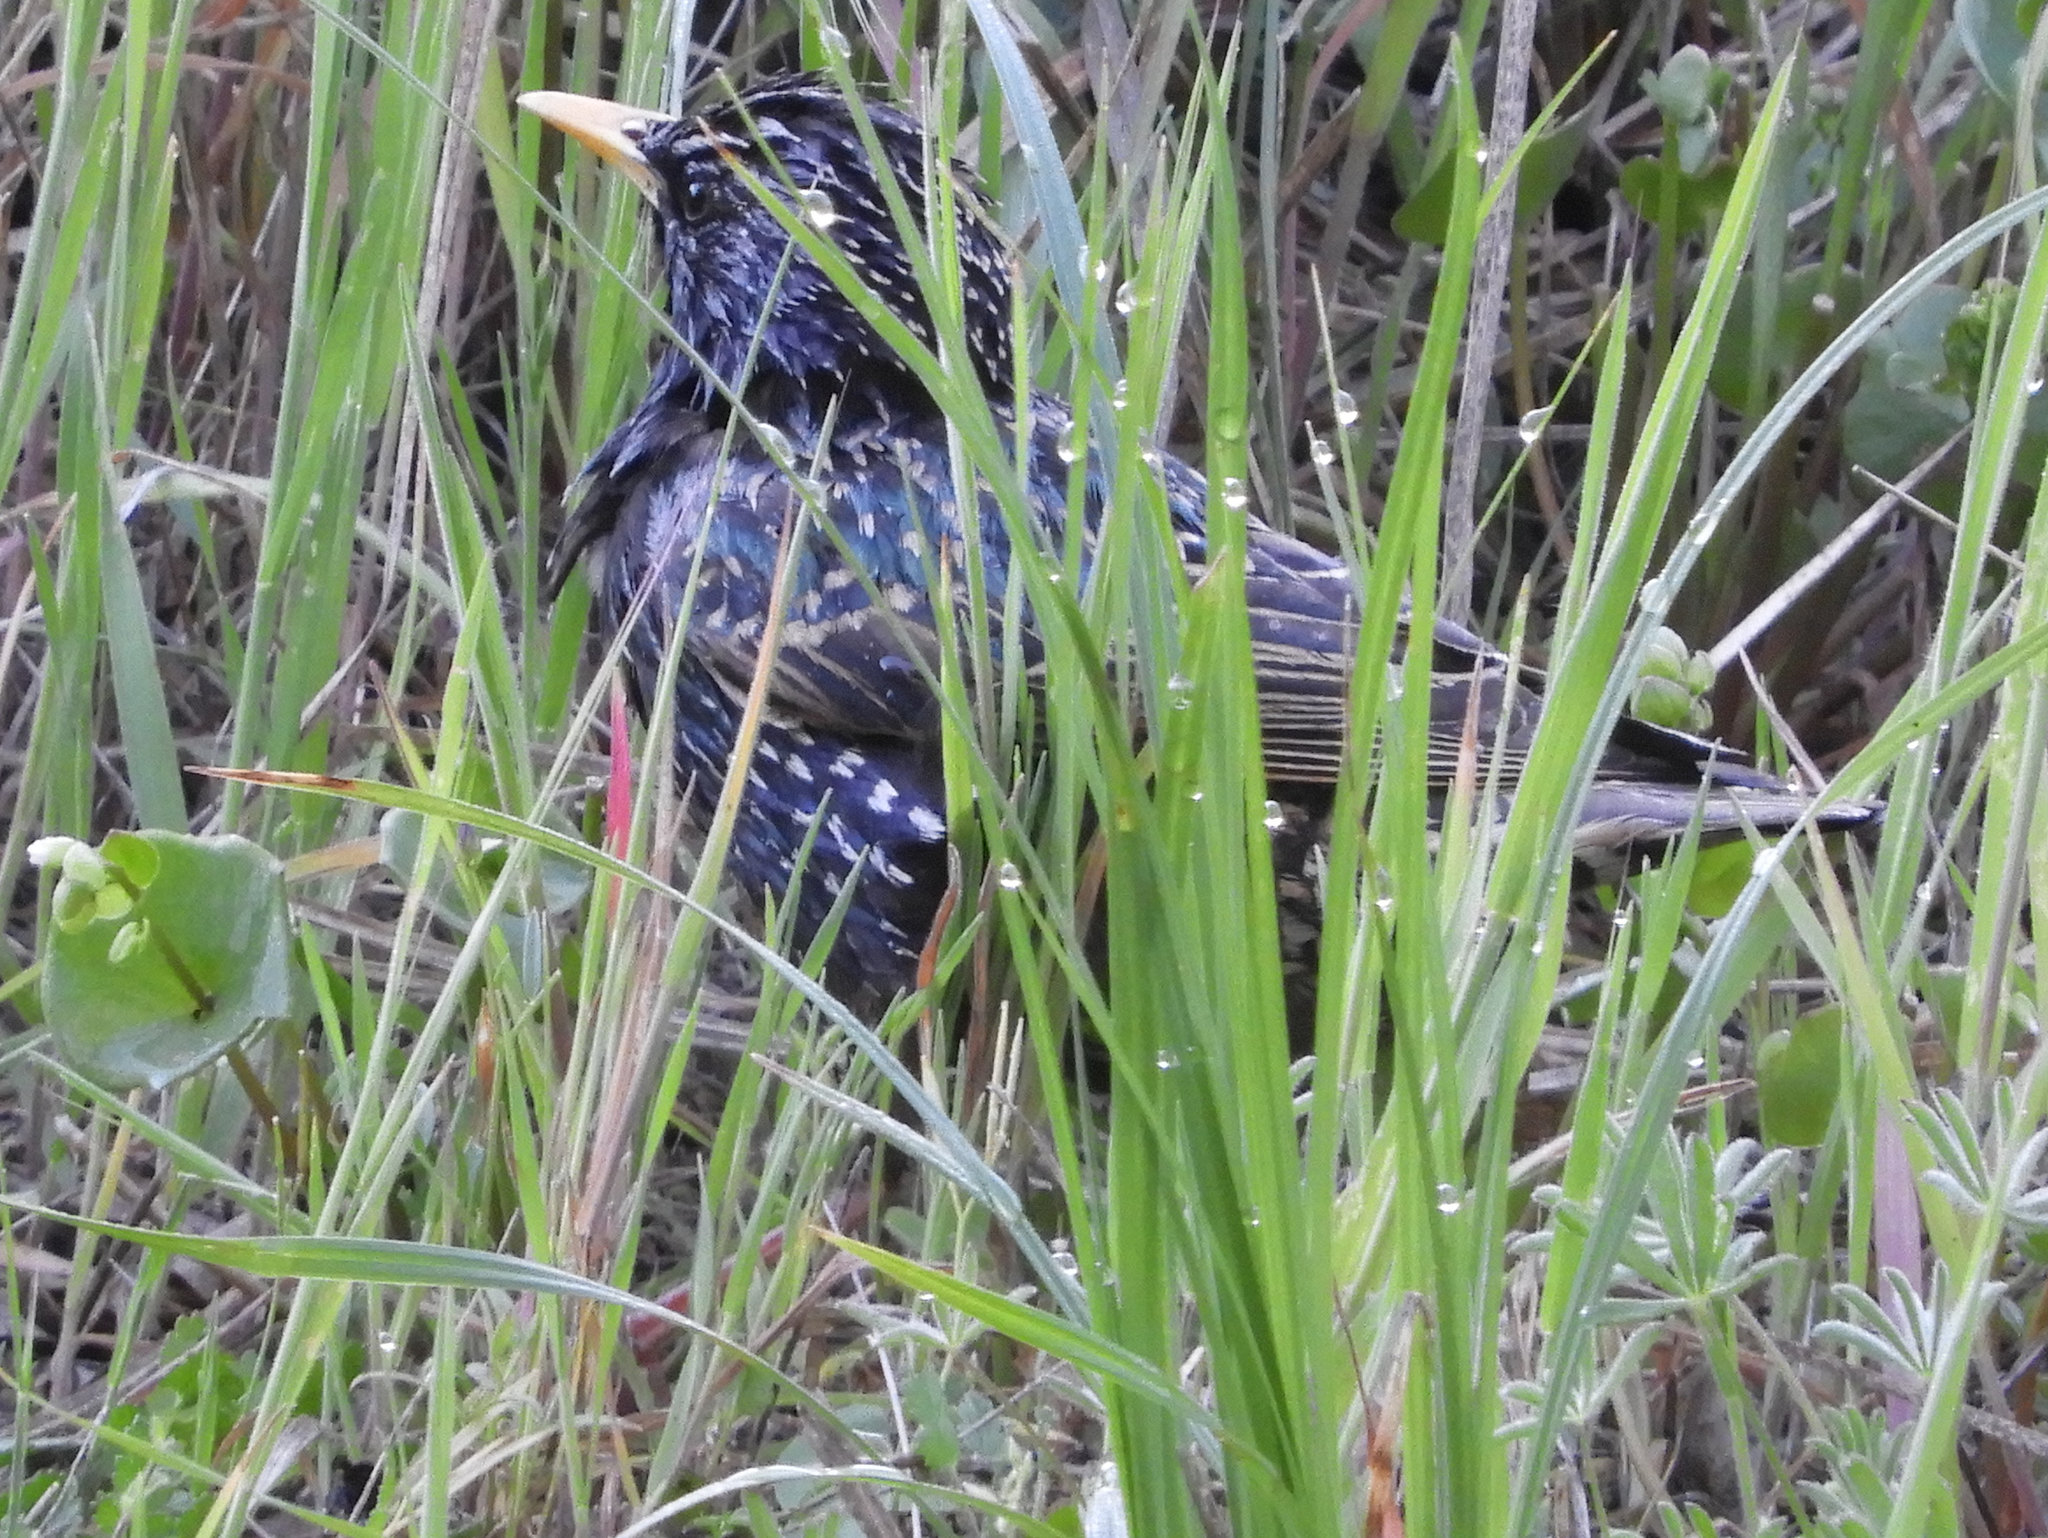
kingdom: Animalia
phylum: Chordata
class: Aves
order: Passeriformes
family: Sturnidae
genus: Sturnus
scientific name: Sturnus vulgaris
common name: Common starling
